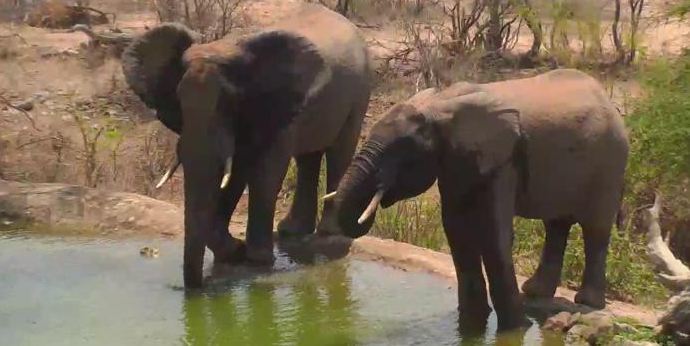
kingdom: Animalia
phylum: Chordata
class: Mammalia
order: Proboscidea
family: Elephantidae
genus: Loxodonta
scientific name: Loxodonta africana
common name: African elephant
